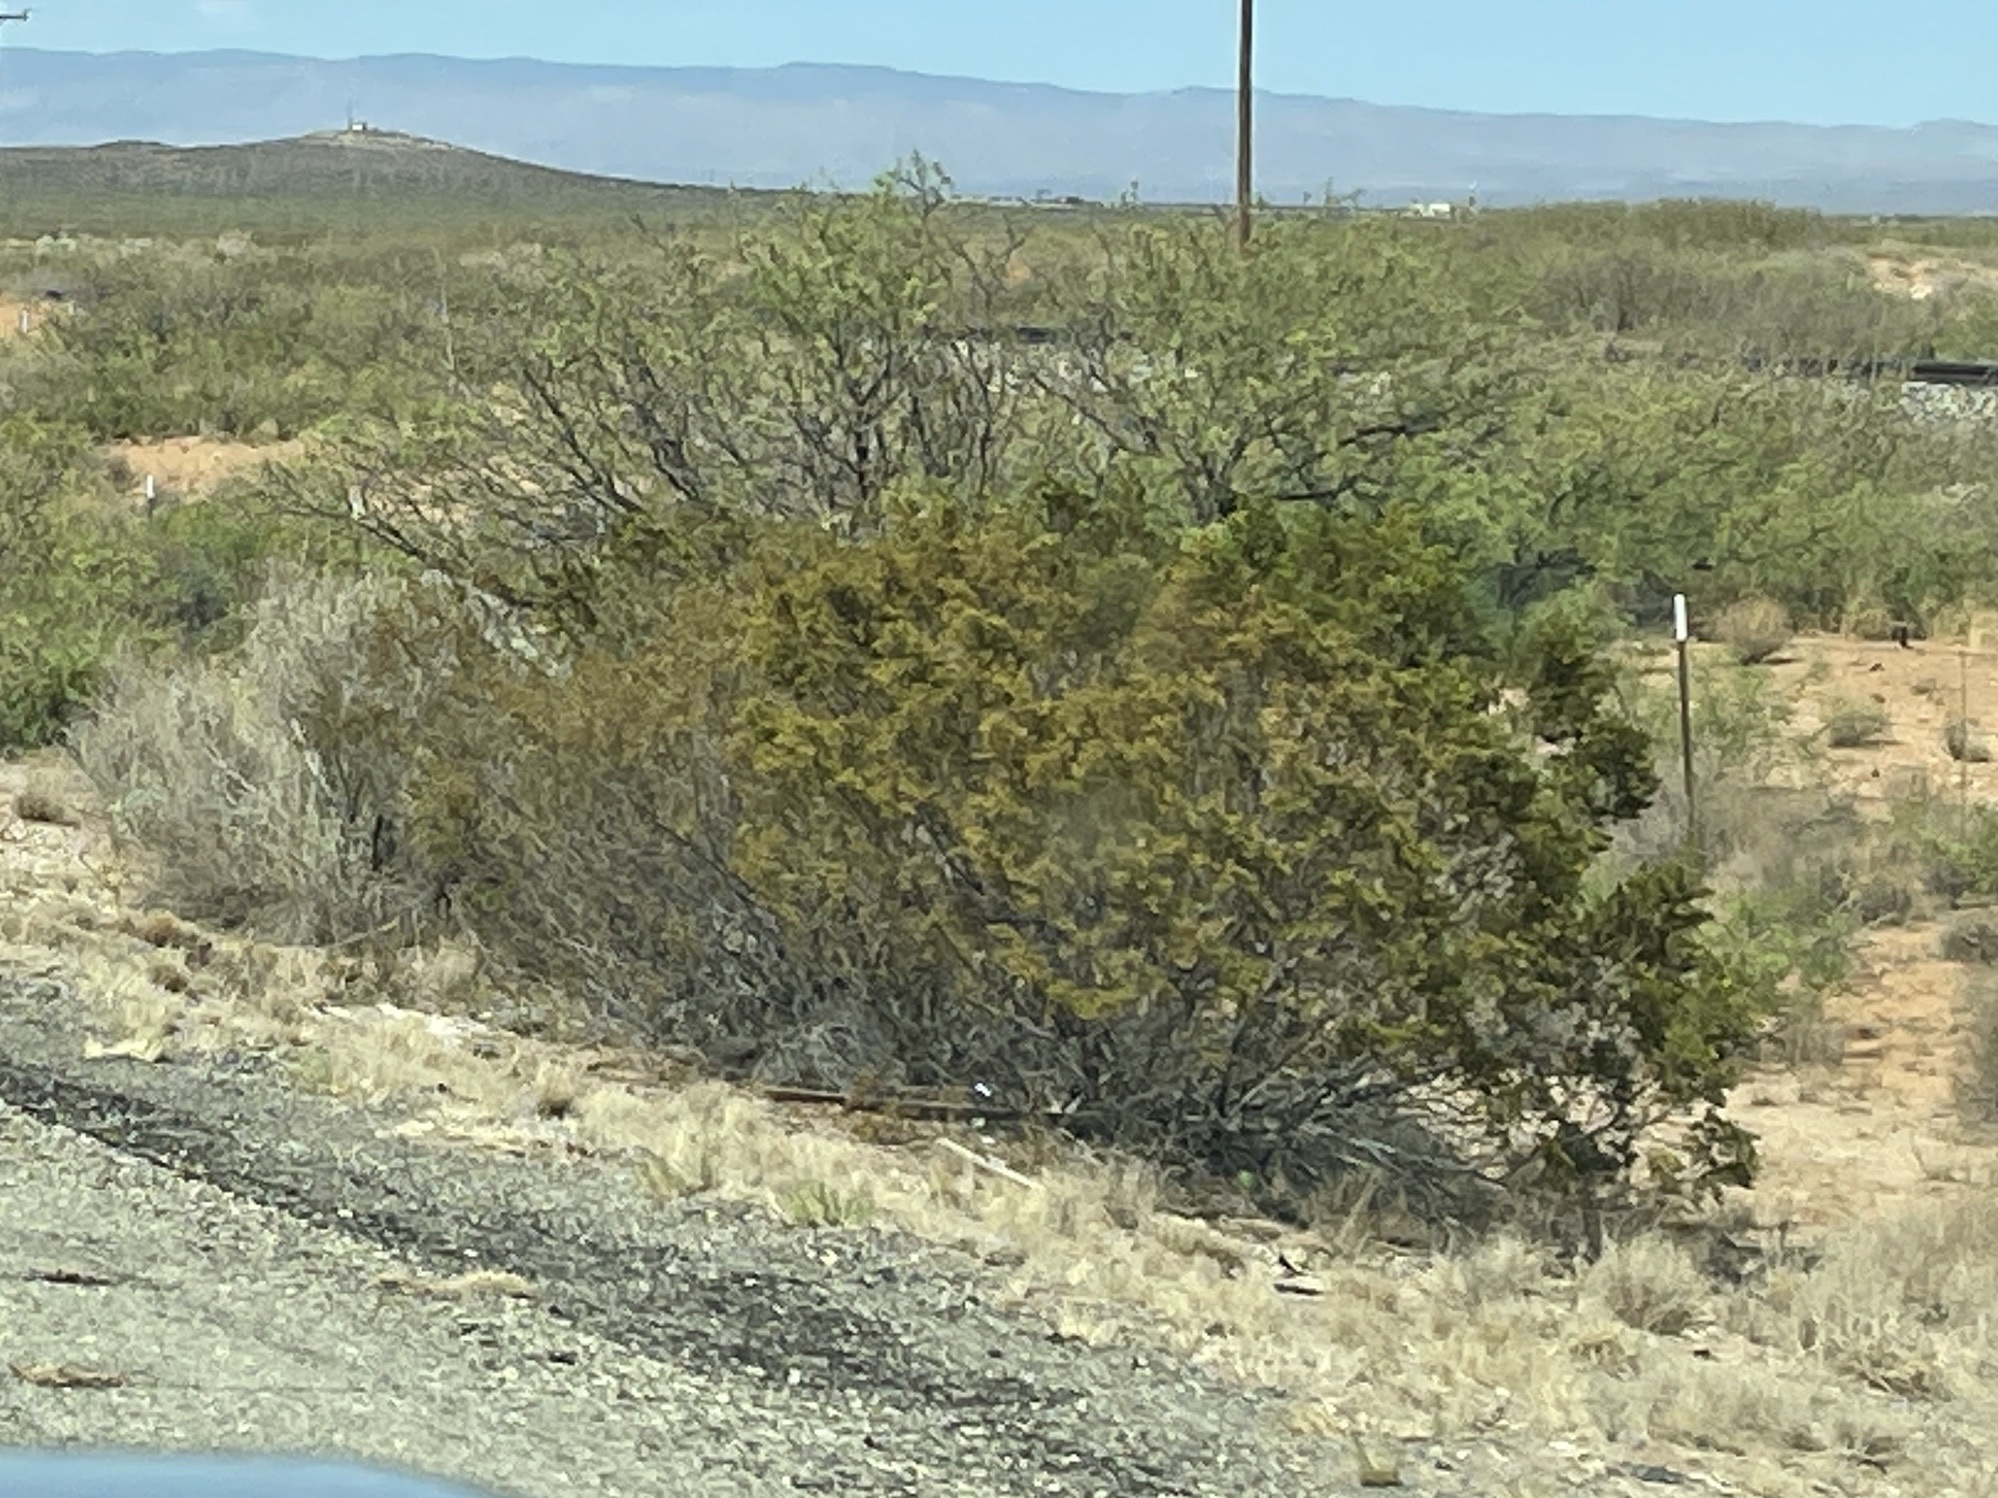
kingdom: Plantae
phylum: Tracheophyta
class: Magnoliopsida
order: Zygophyllales
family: Zygophyllaceae
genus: Larrea
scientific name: Larrea tridentata
